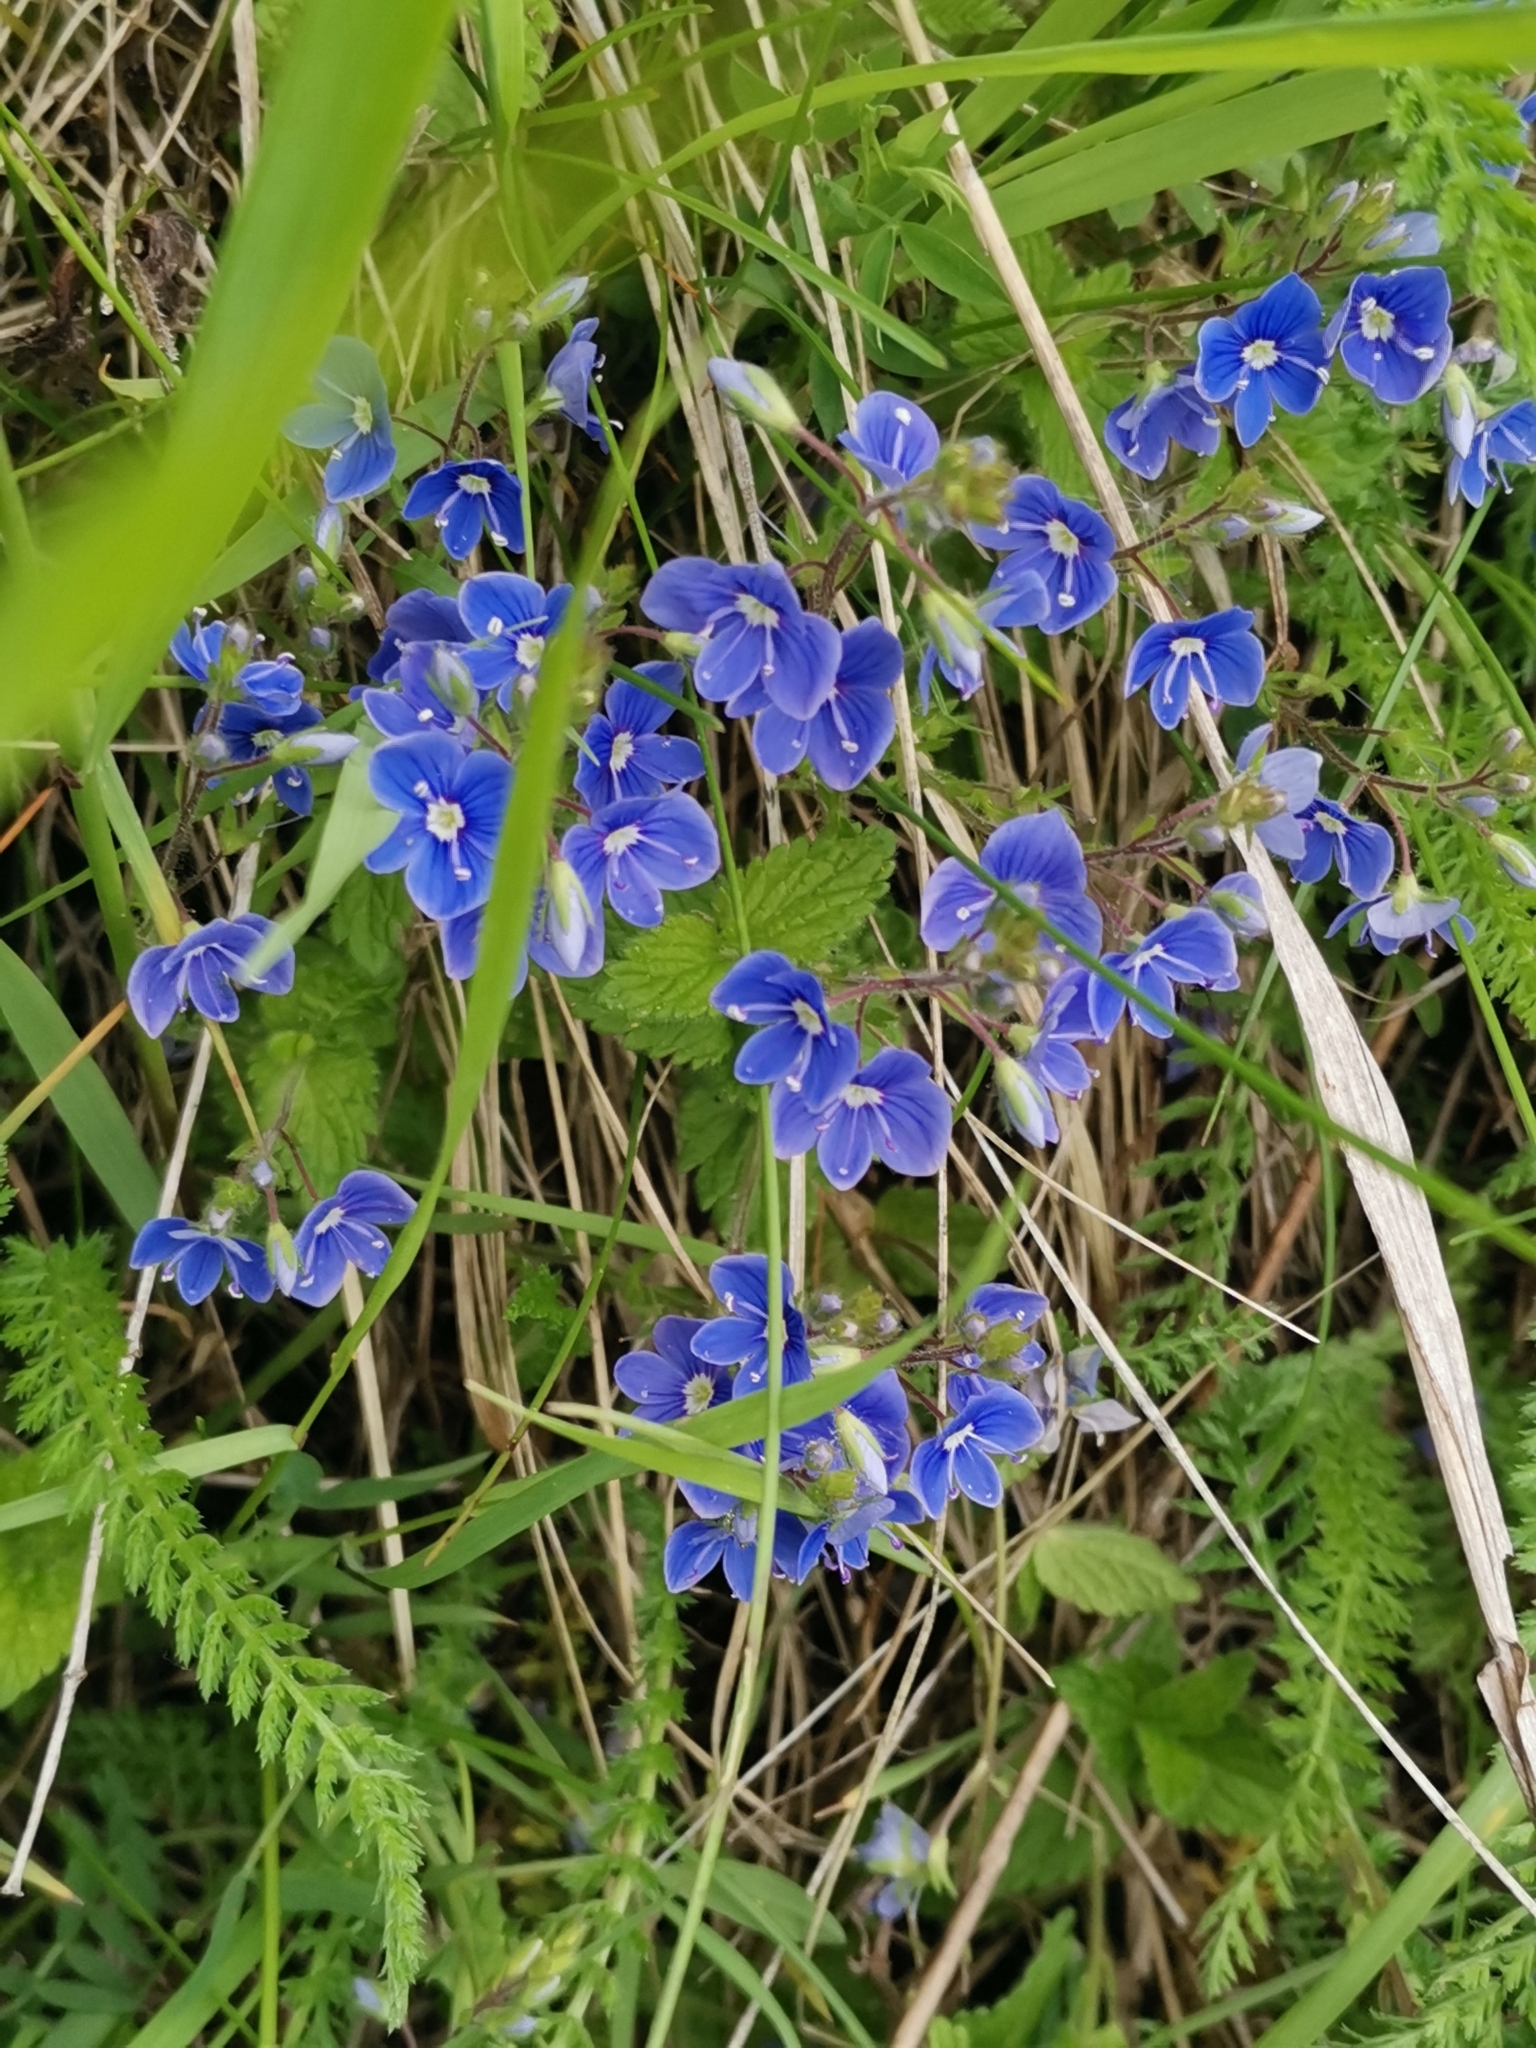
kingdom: Plantae
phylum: Tracheophyta
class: Magnoliopsida
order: Lamiales
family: Plantaginaceae
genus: Veronica
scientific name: Veronica chamaedrys
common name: Germander speedwell
